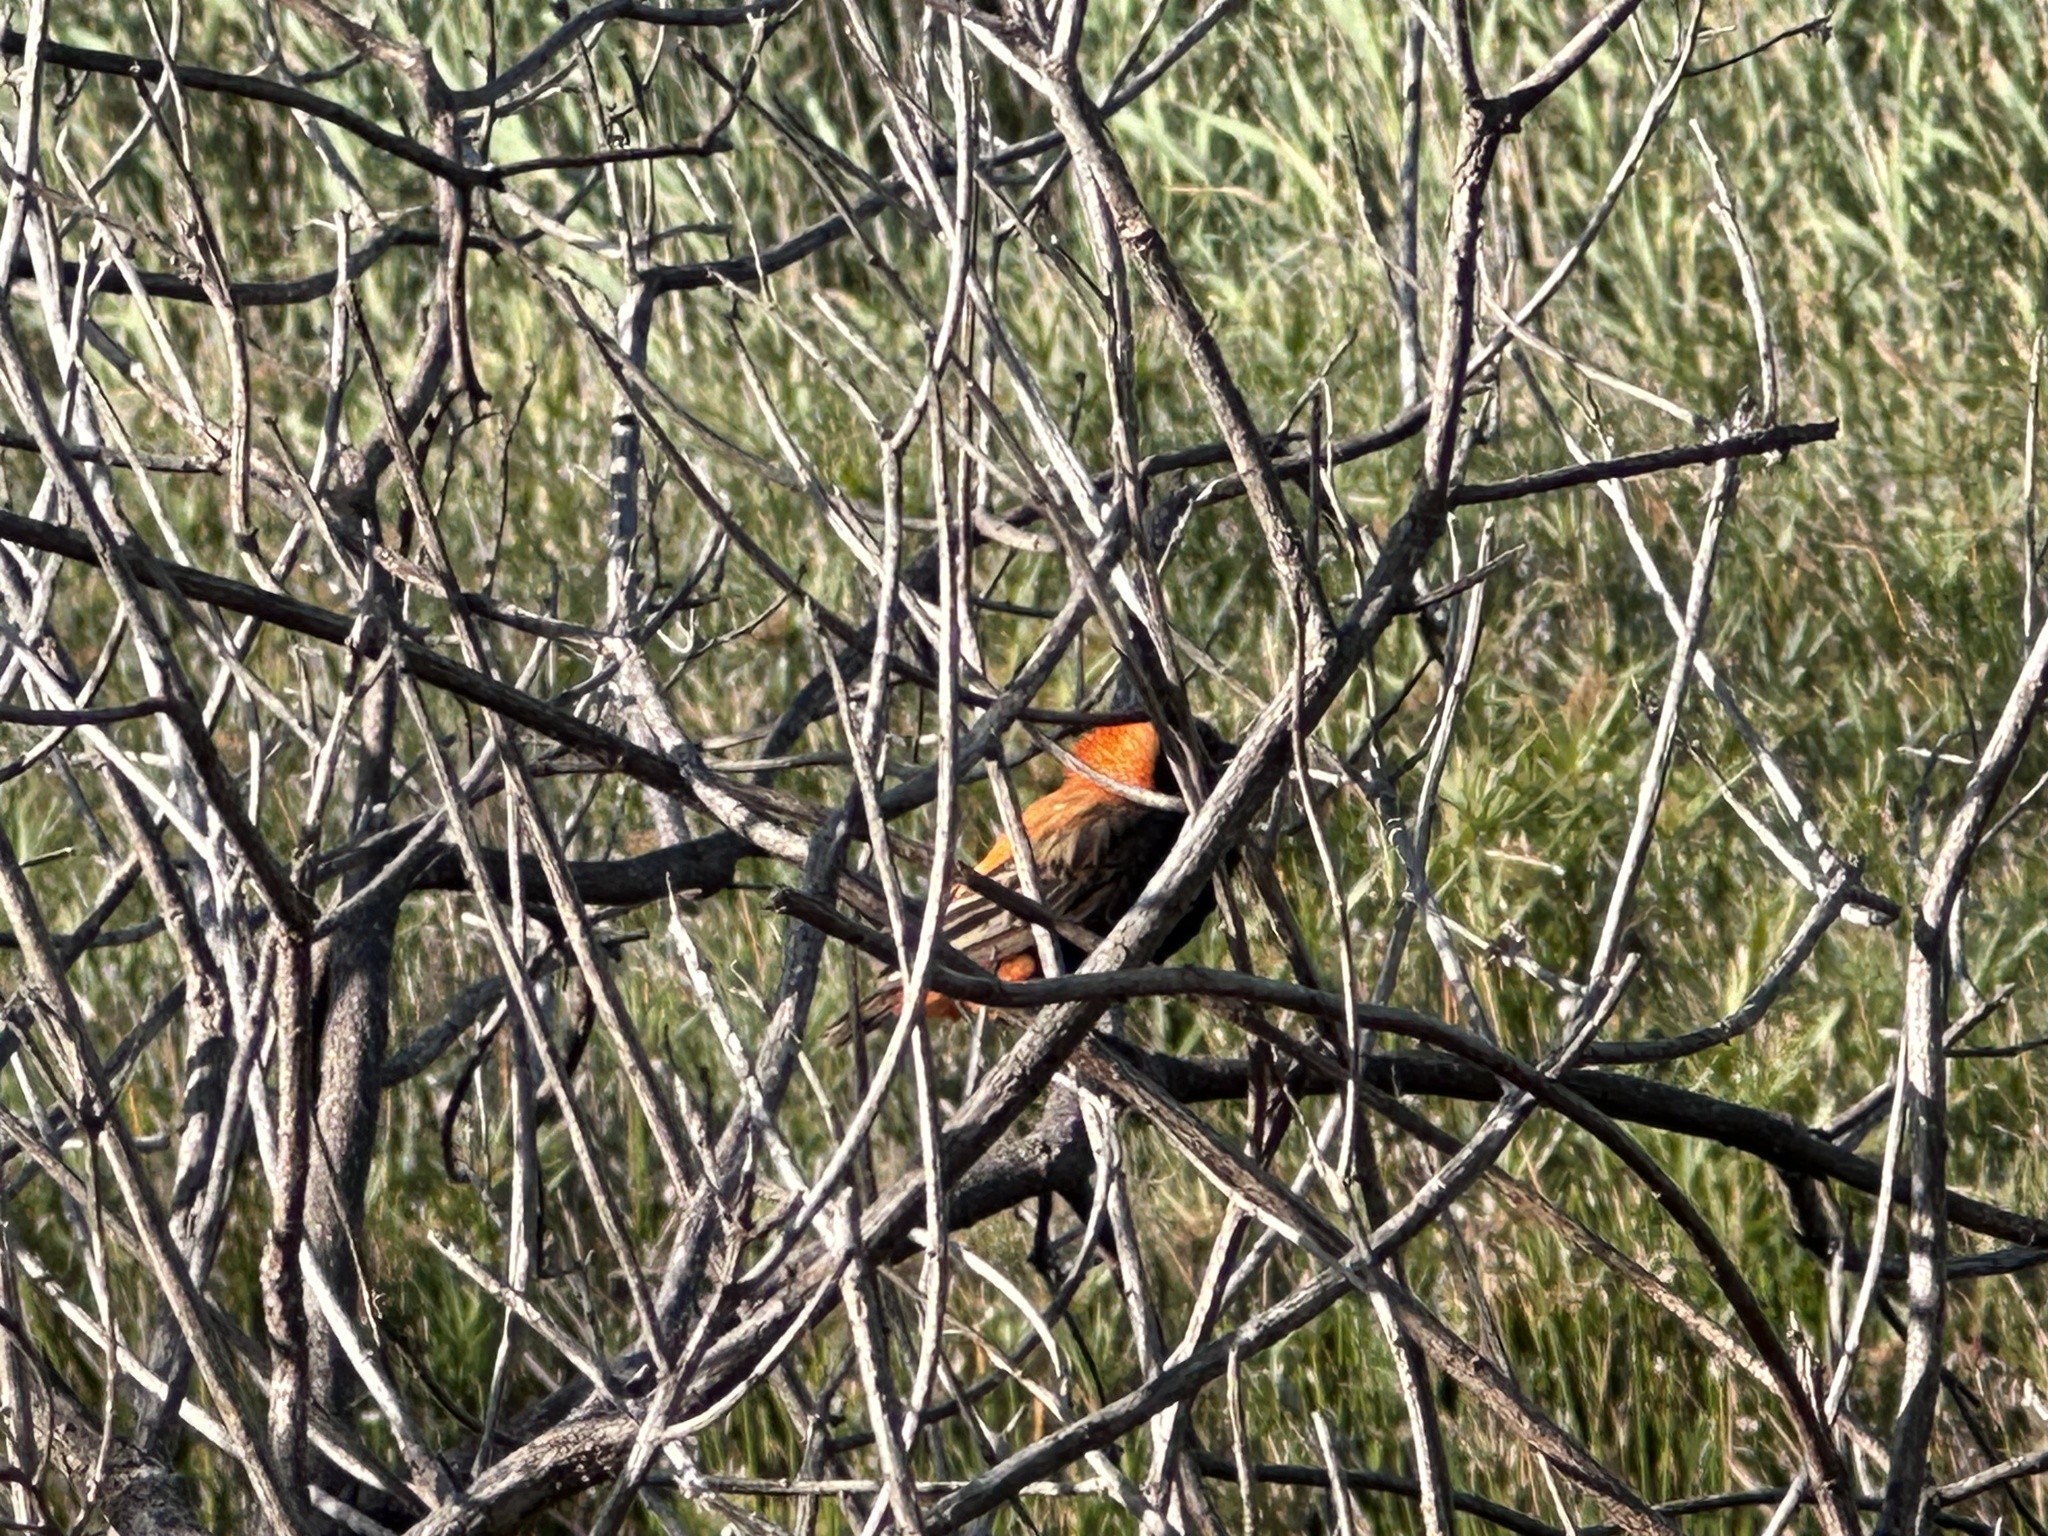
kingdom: Animalia
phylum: Chordata
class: Aves
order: Passeriformes
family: Ploceidae
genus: Euplectes
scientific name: Euplectes orix
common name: Southern red bishop
